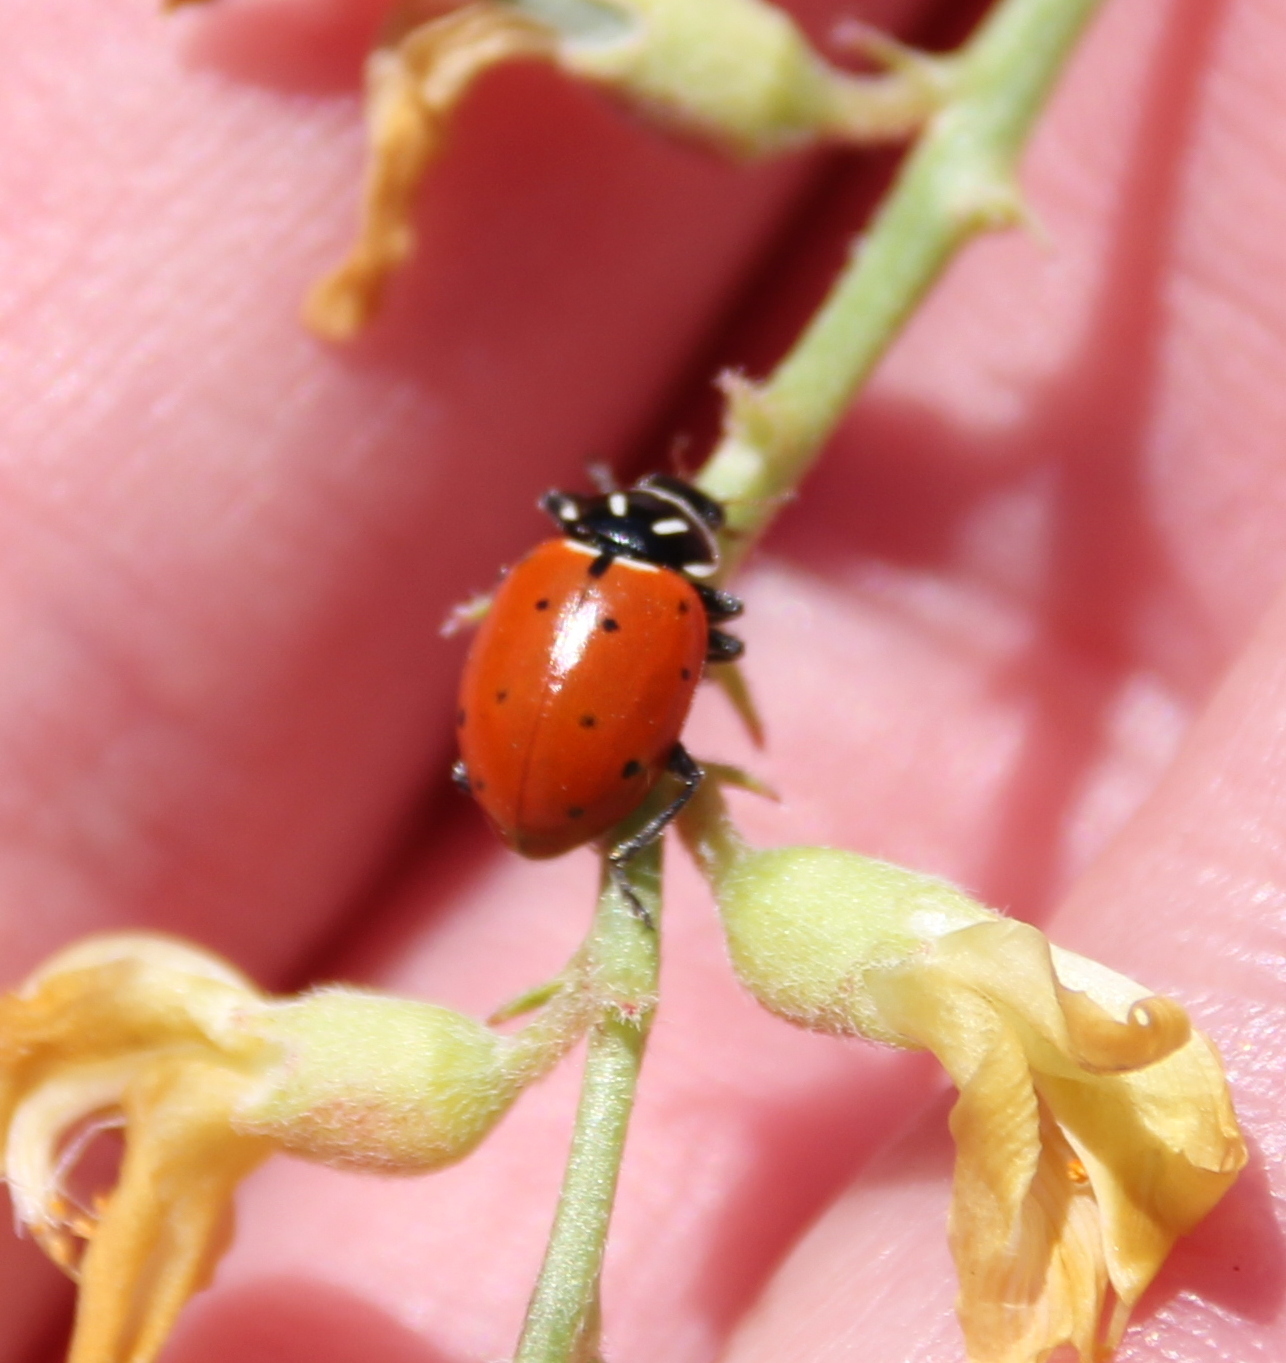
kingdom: Animalia
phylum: Arthropoda
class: Insecta
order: Coleoptera
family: Coccinellidae
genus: Hippodamia
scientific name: Hippodamia convergens
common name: Convergent lady beetle
